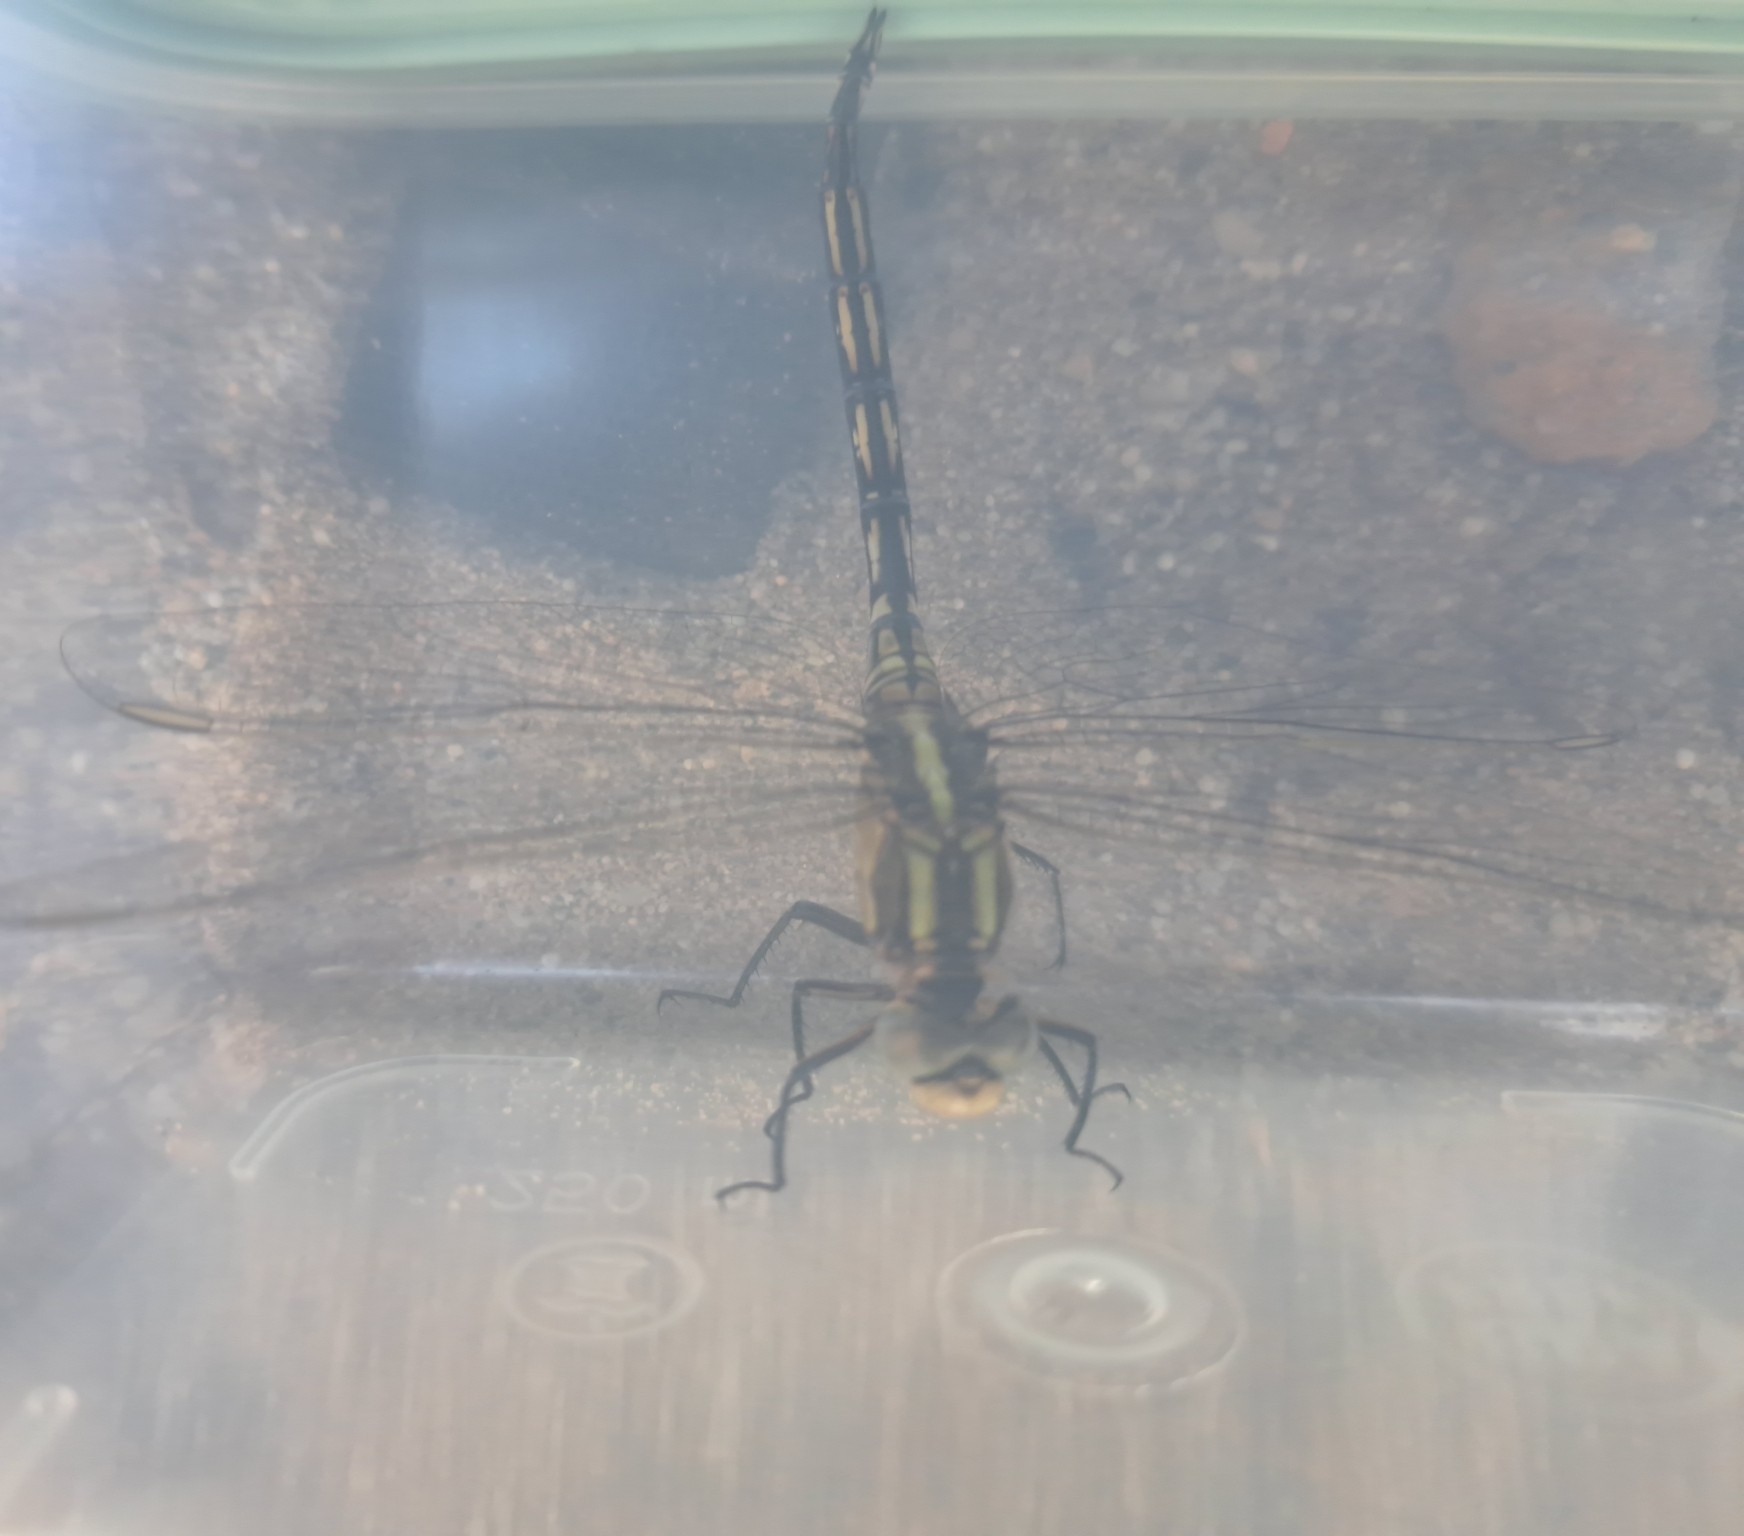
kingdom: Animalia
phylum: Arthropoda
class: Insecta
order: Odonata
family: Libellulidae
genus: Orthetrum
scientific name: Orthetrum trinacria
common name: Long skimmer
